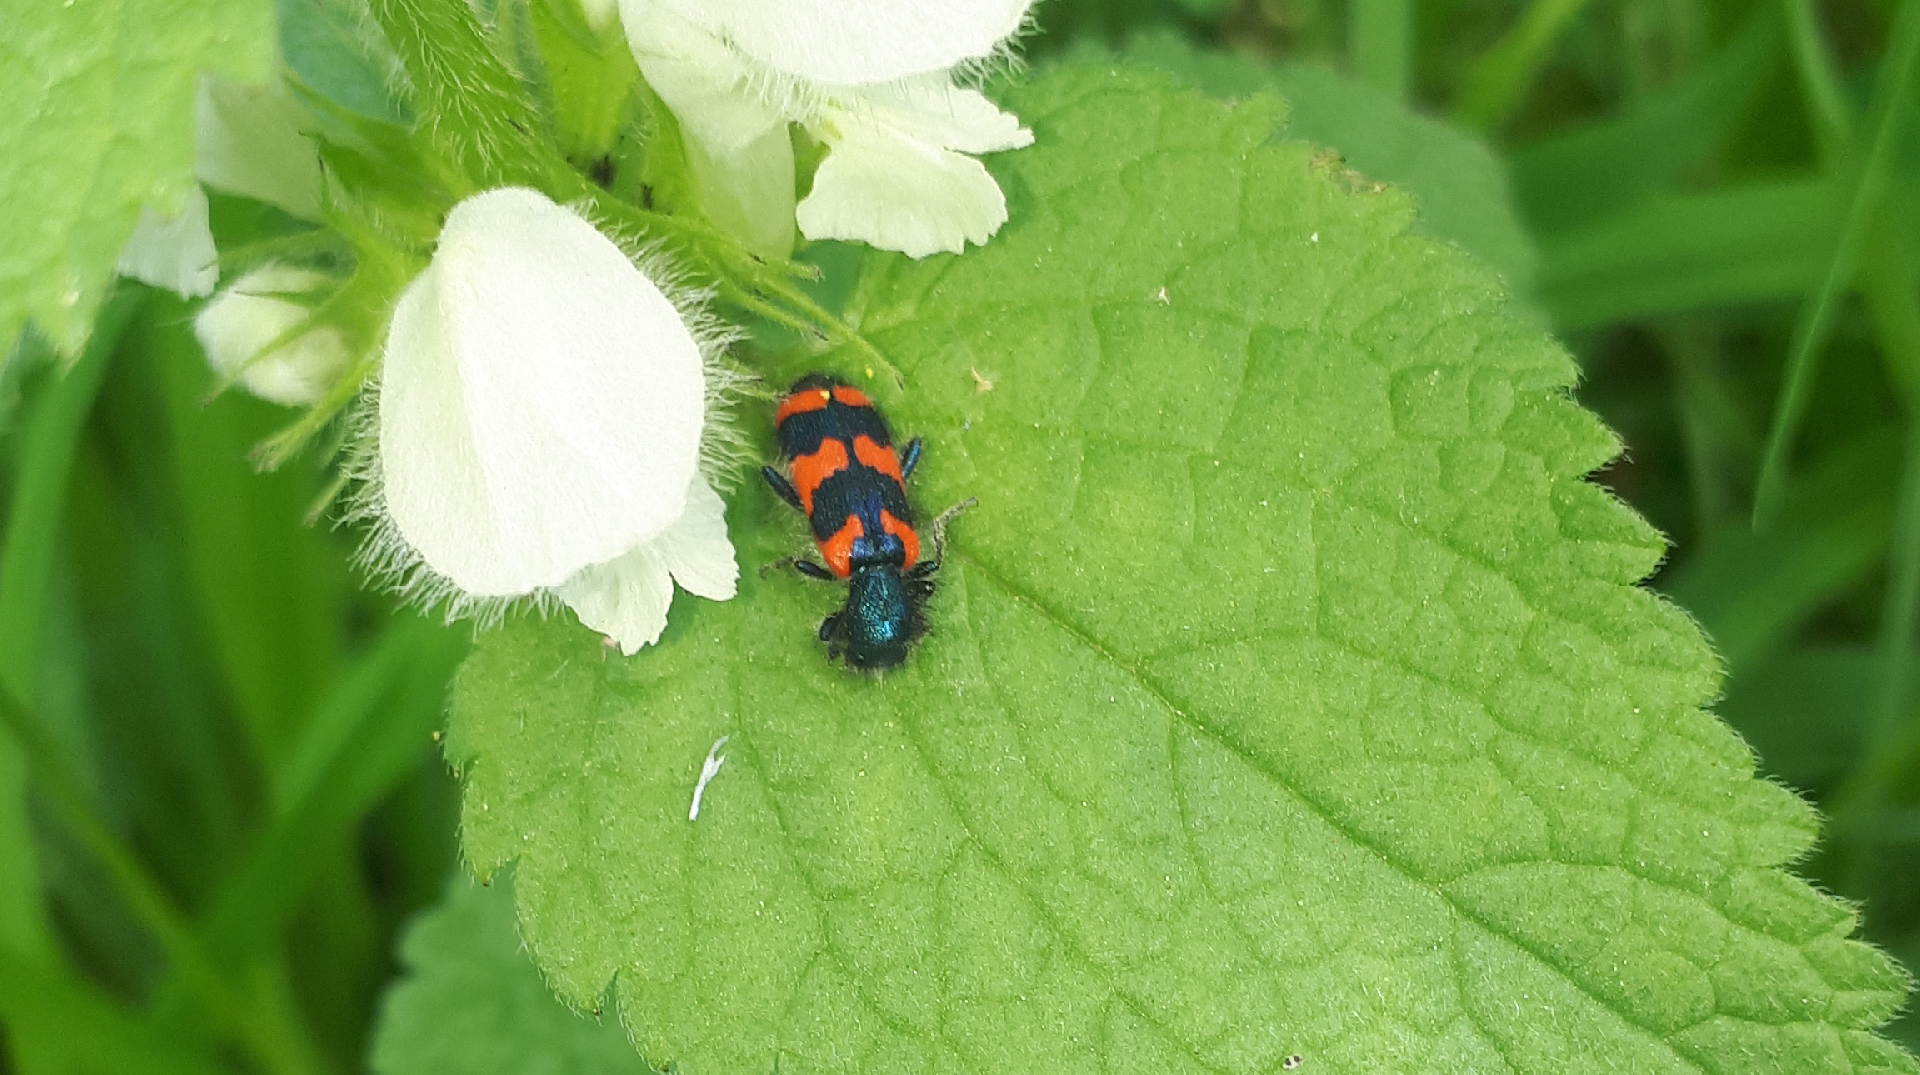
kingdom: Animalia
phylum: Arthropoda
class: Insecta
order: Coleoptera
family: Cleridae
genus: Trichodes
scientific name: Trichodes alvearius
